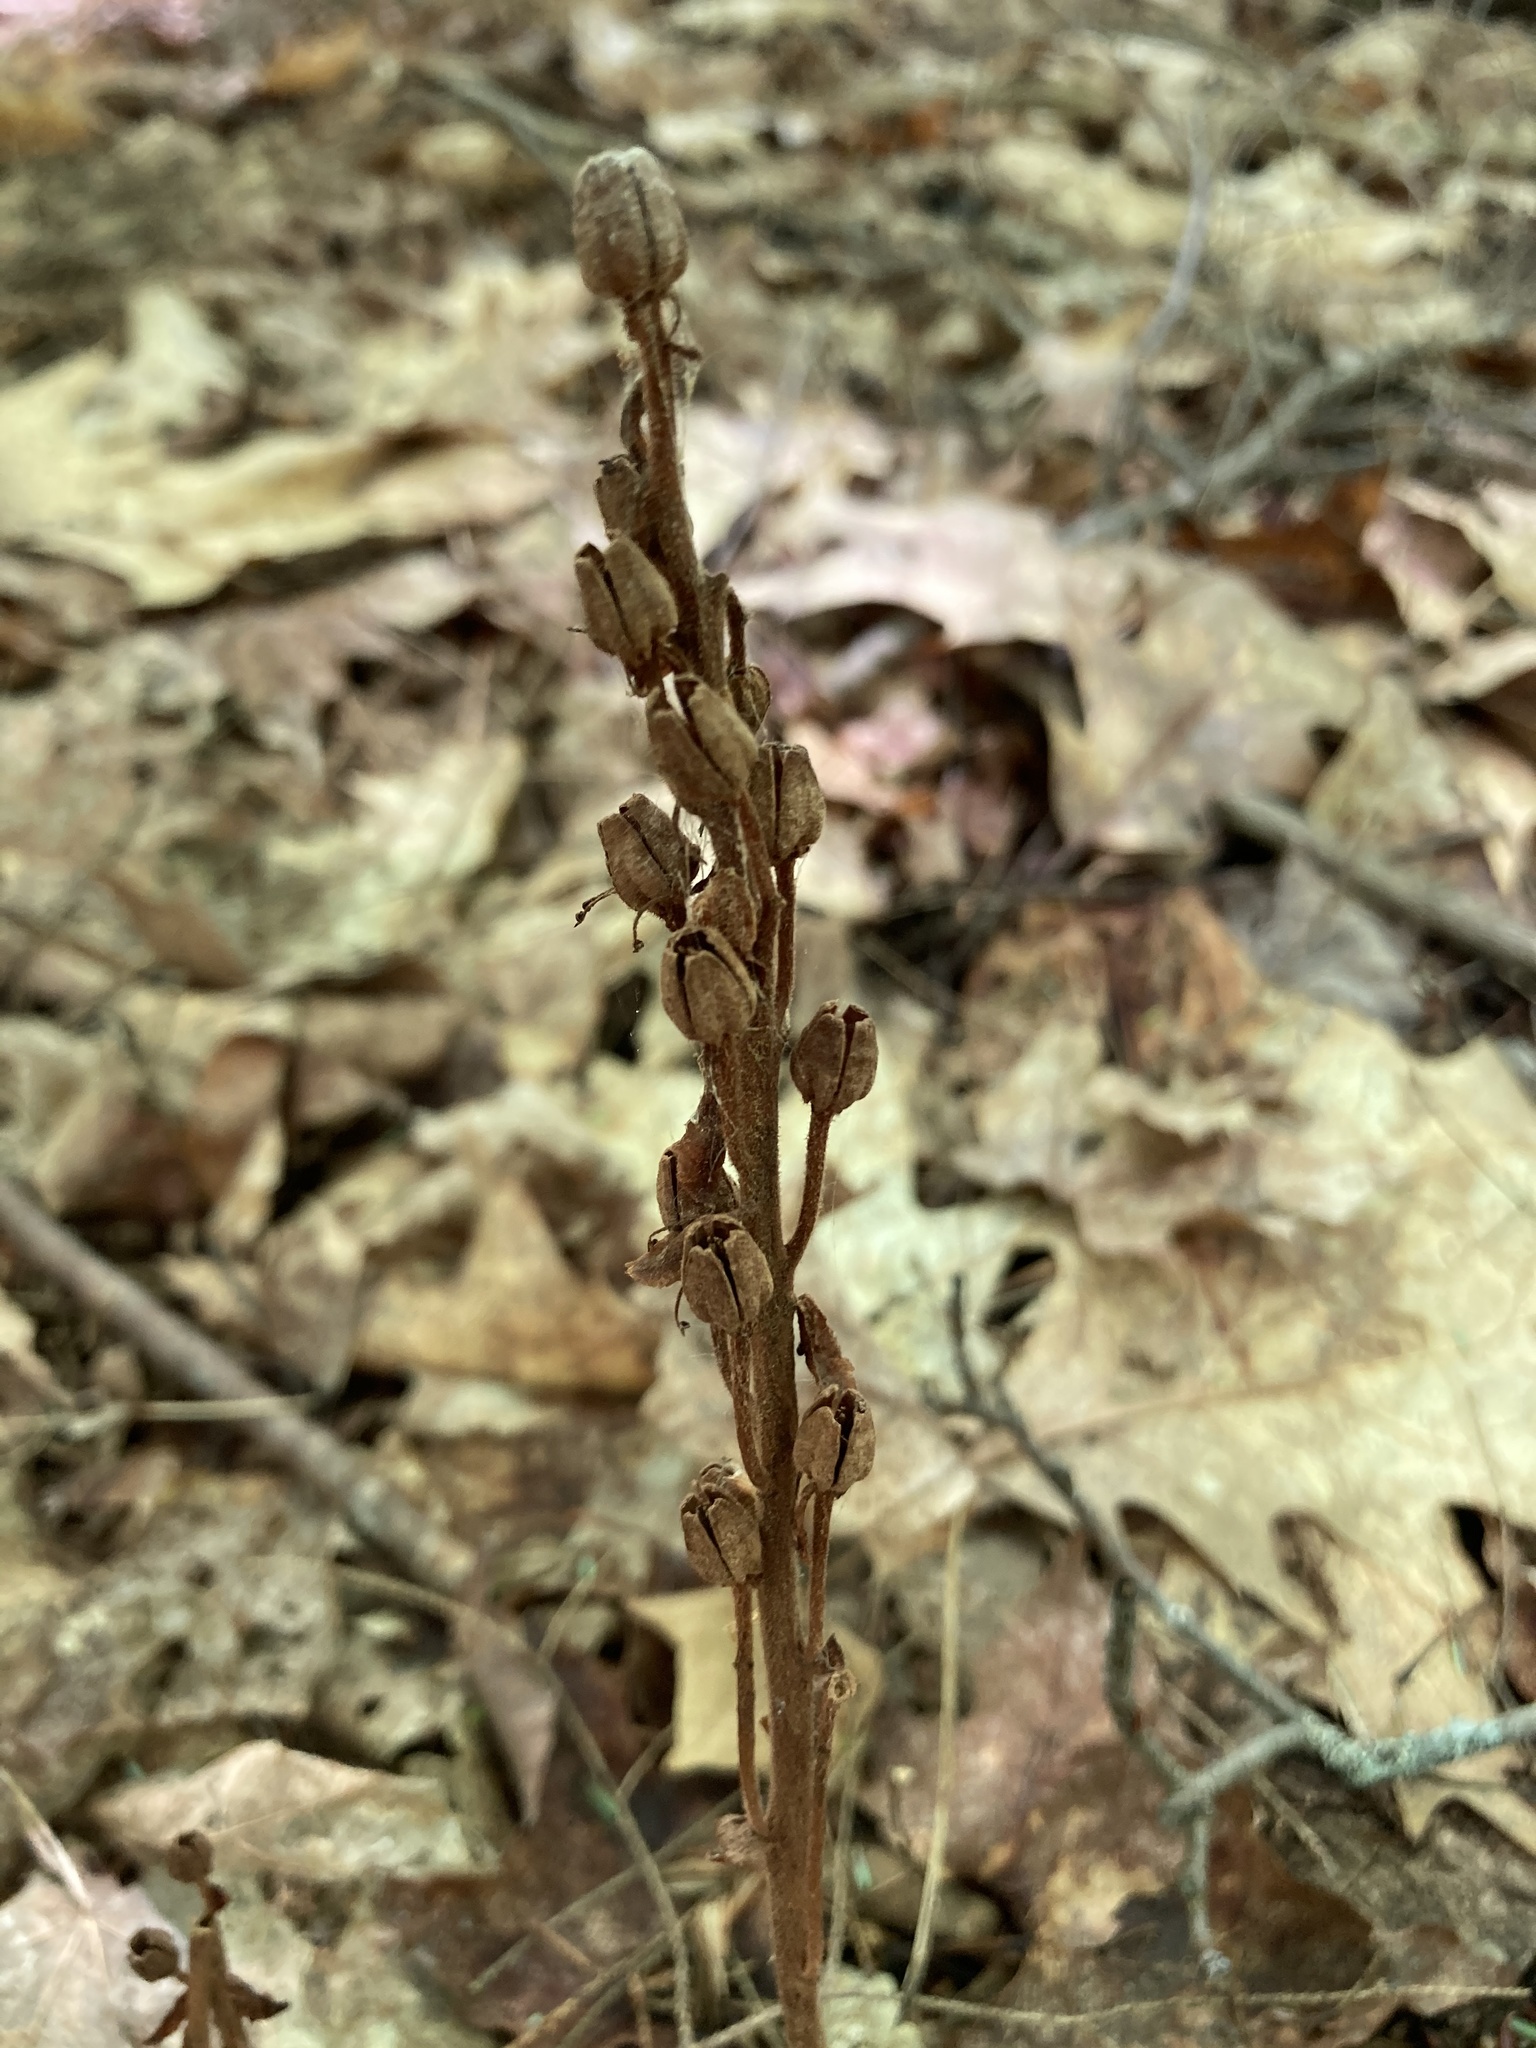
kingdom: Plantae
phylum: Tracheophyta
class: Magnoliopsida
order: Ericales
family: Ericaceae
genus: Hypopitys
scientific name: Hypopitys monotropa
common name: Yellow bird's-nest
